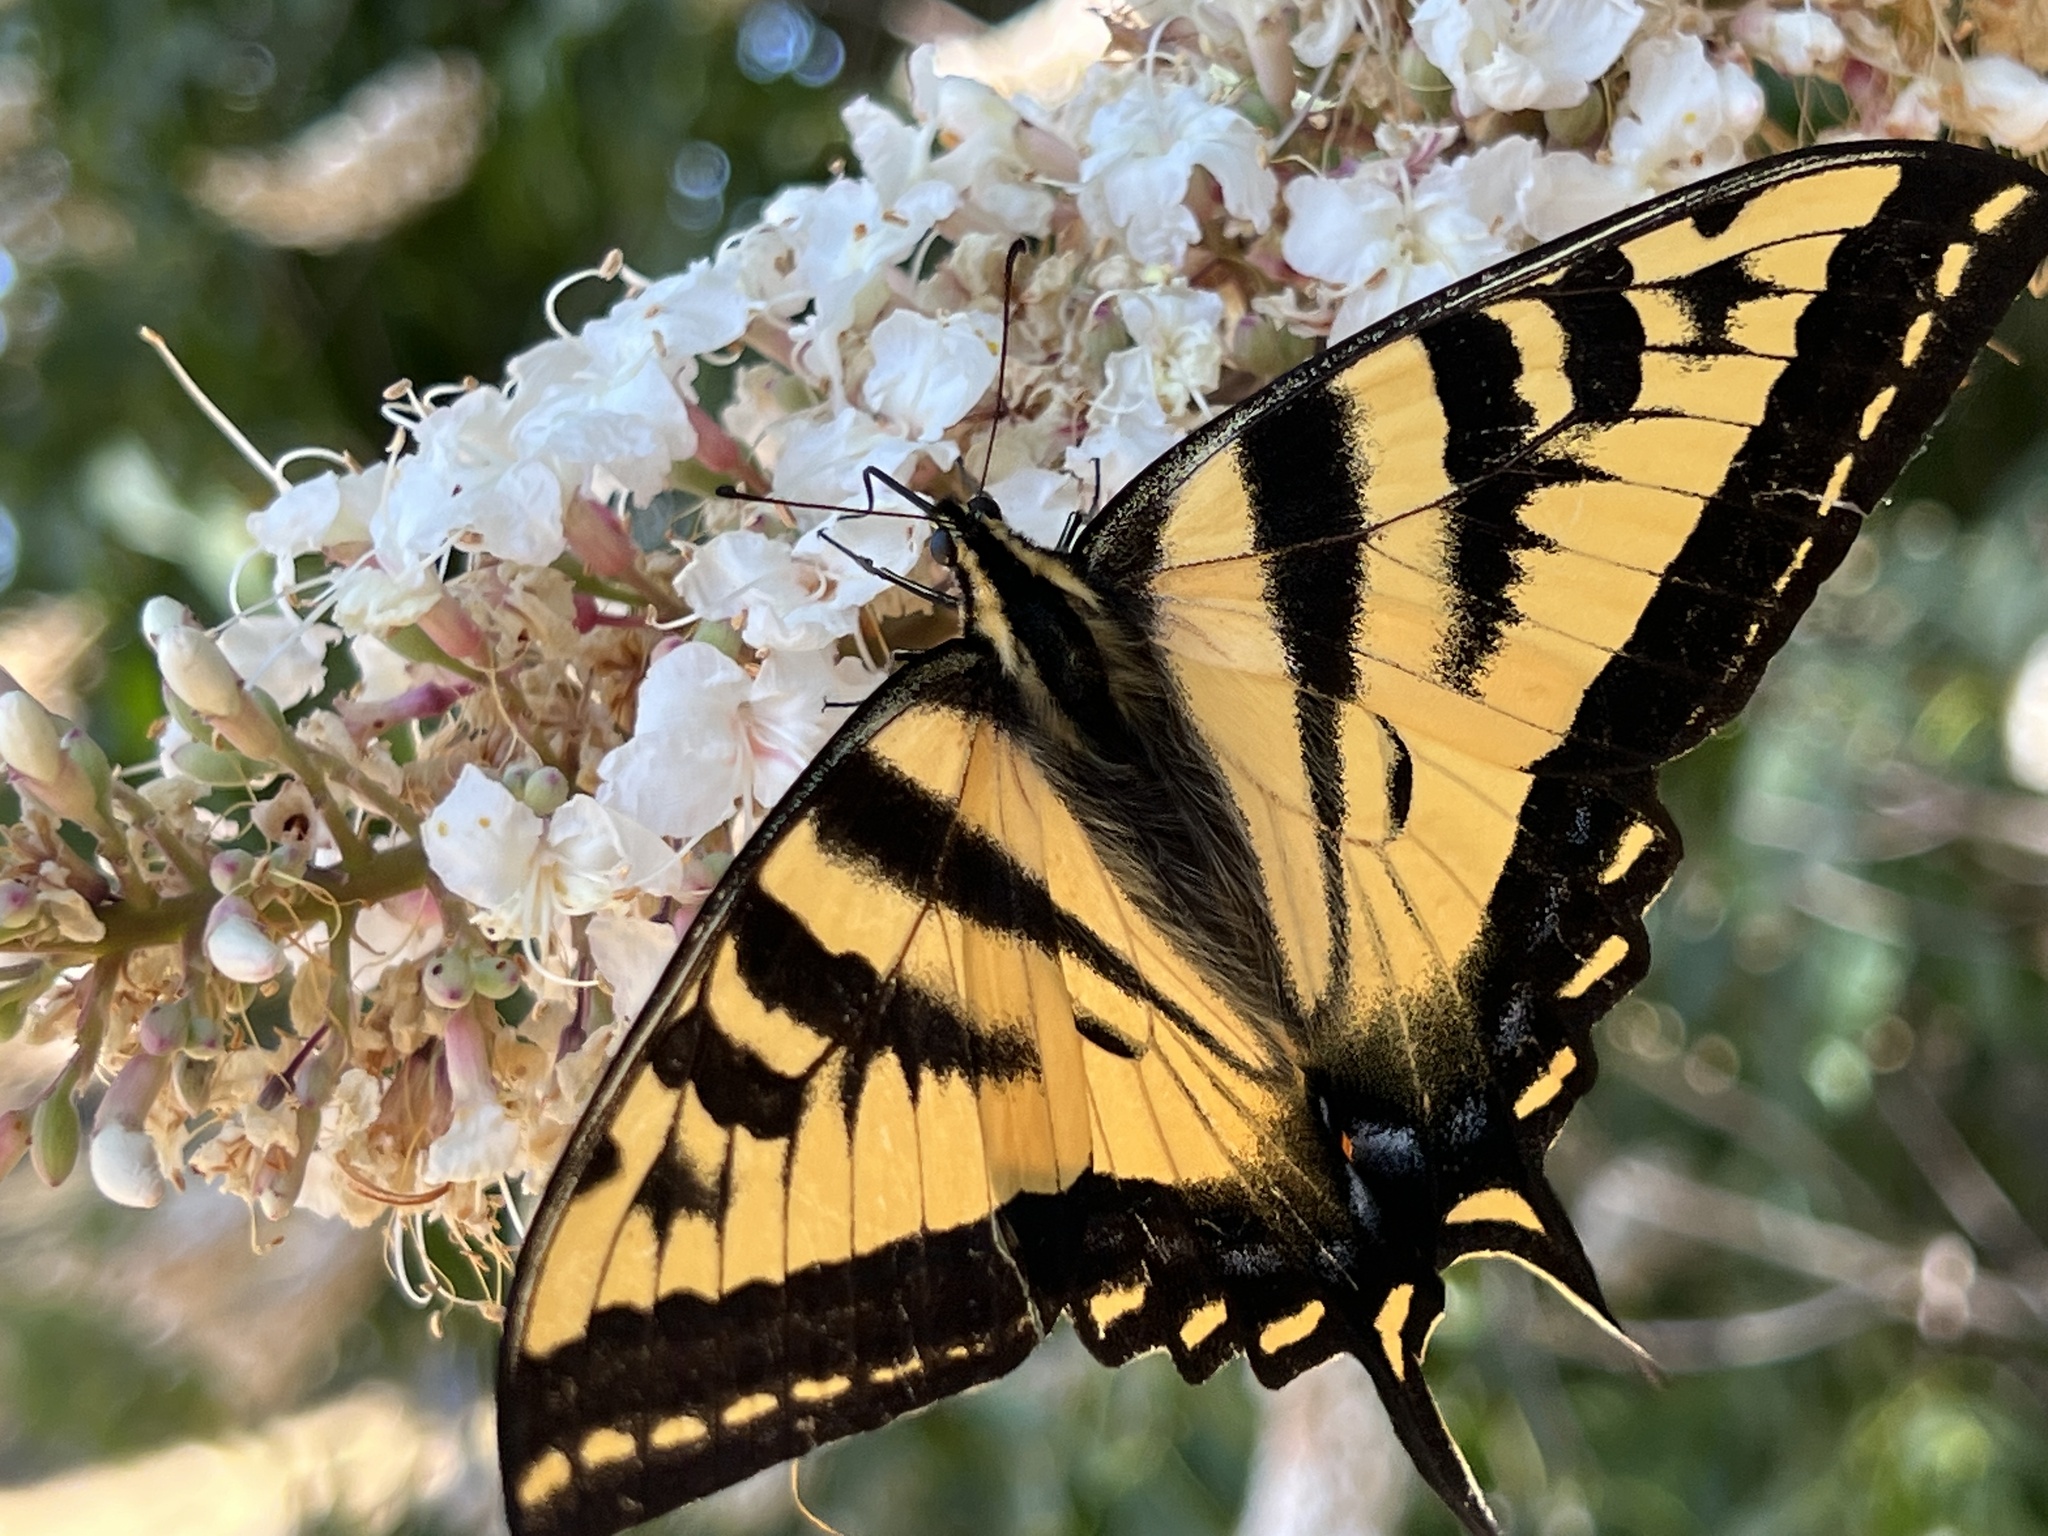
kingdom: Animalia
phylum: Arthropoda
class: Insecta
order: Lepidoptera
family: Papilionidae
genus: Papilio
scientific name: Papilio rutulus
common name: Western tiger swallowtail
